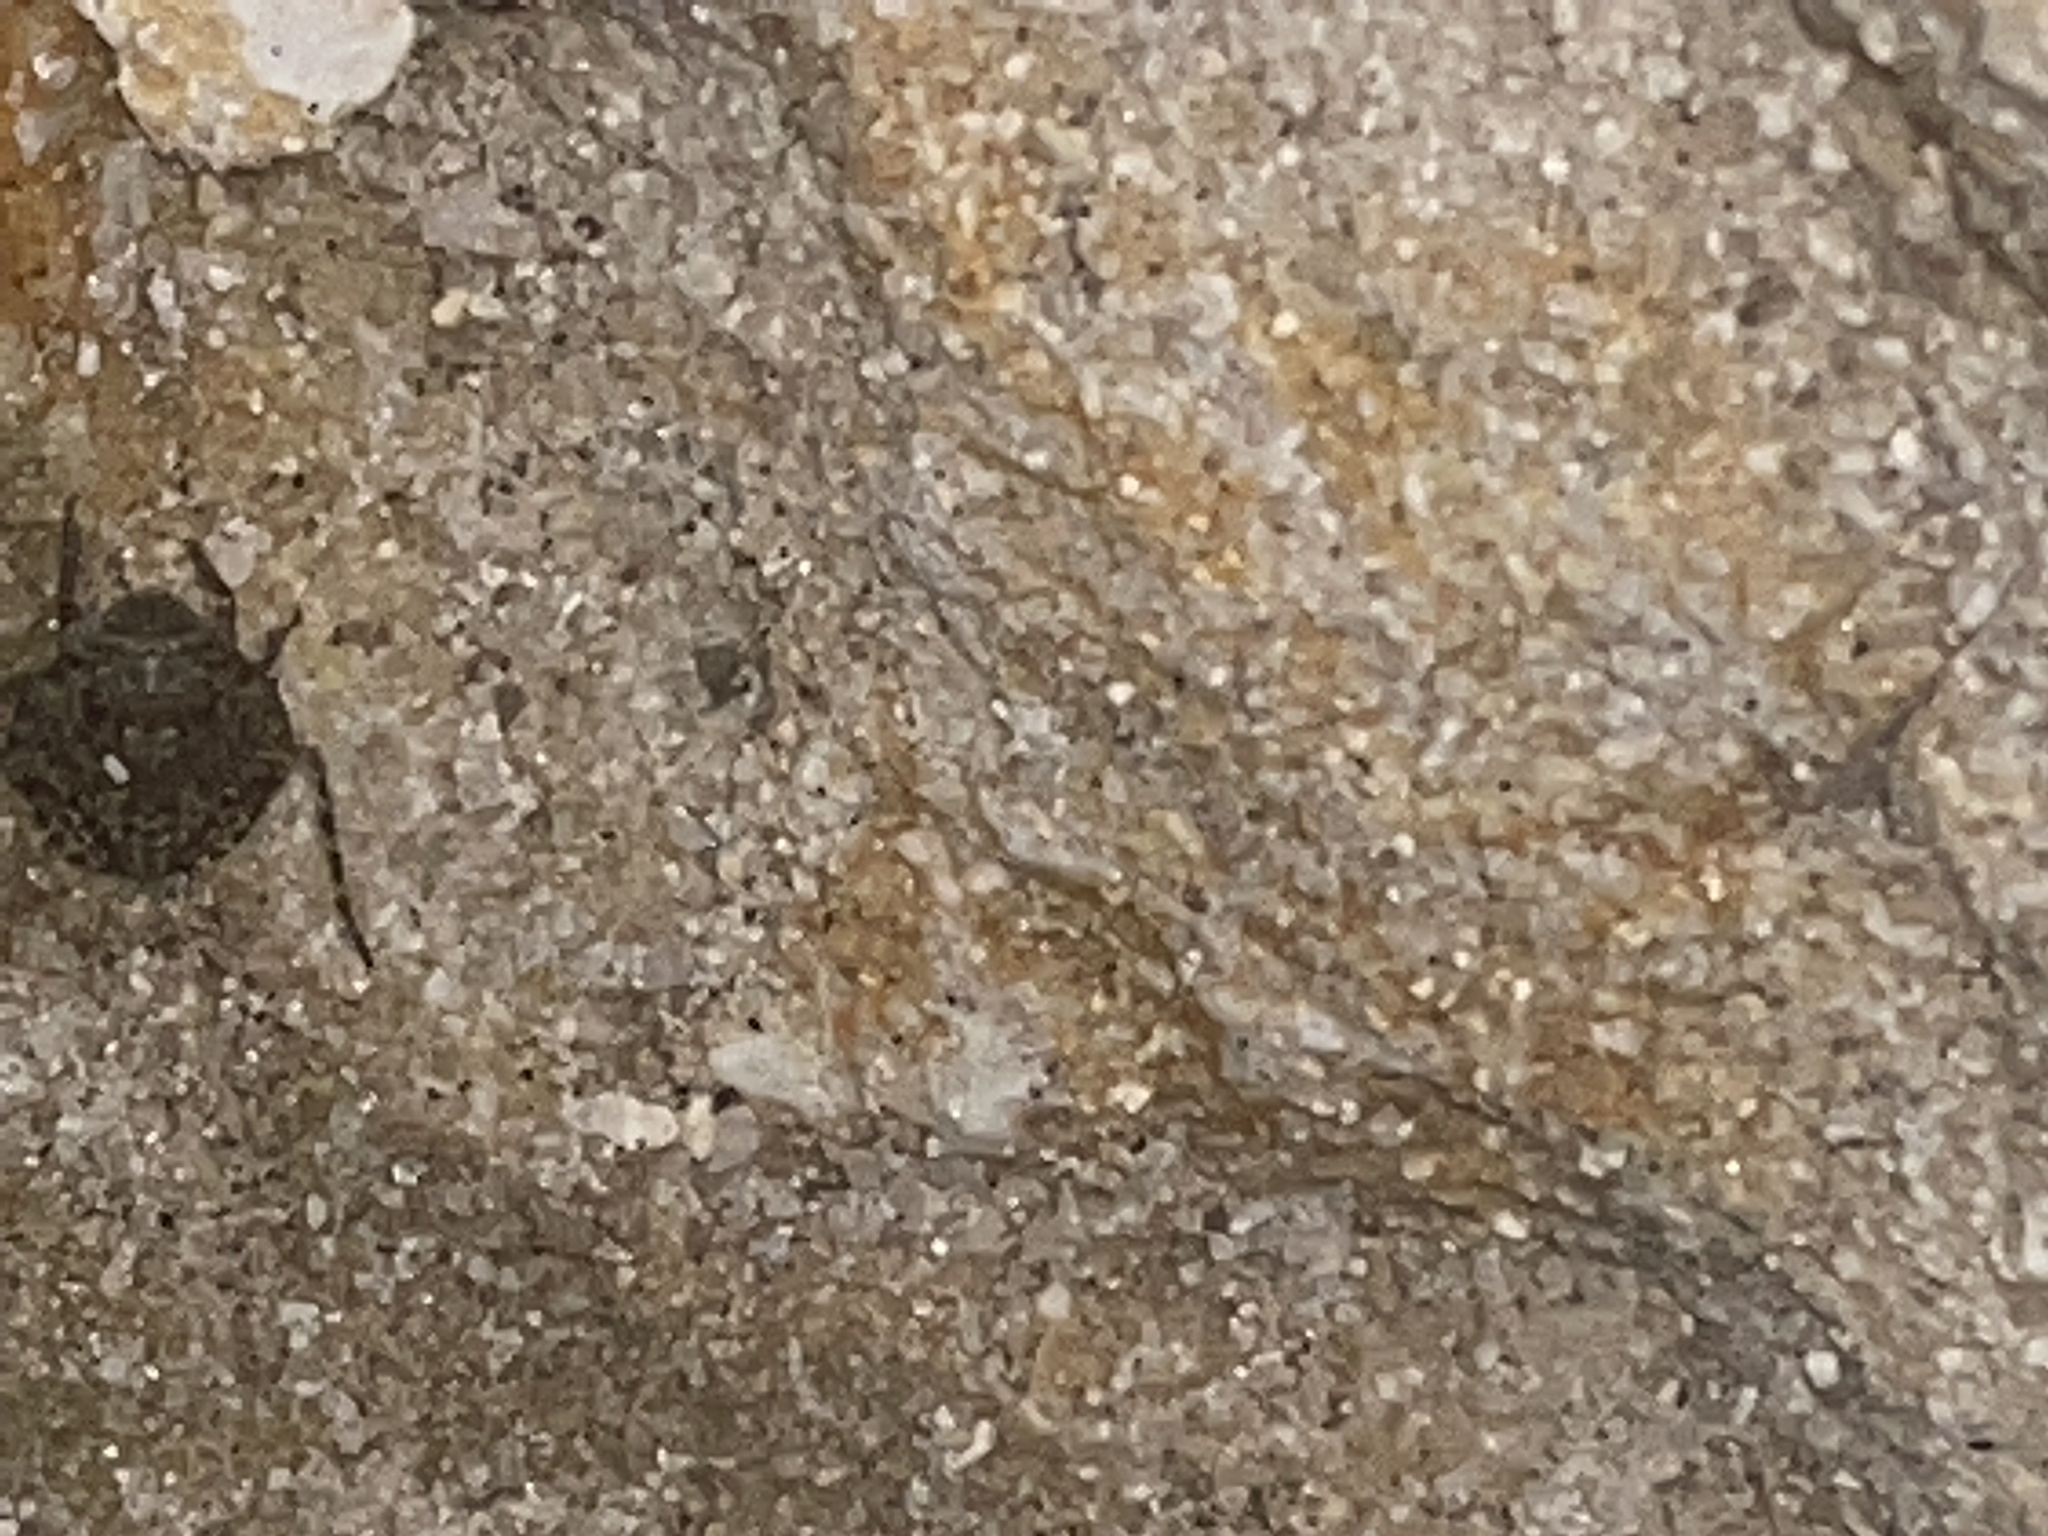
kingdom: Animalia
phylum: Arthropoda
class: Insecta
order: Hemiptera
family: Gelastocoridae
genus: Gelastocoris
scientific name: Gelastocoris oculatus
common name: Toad bug
